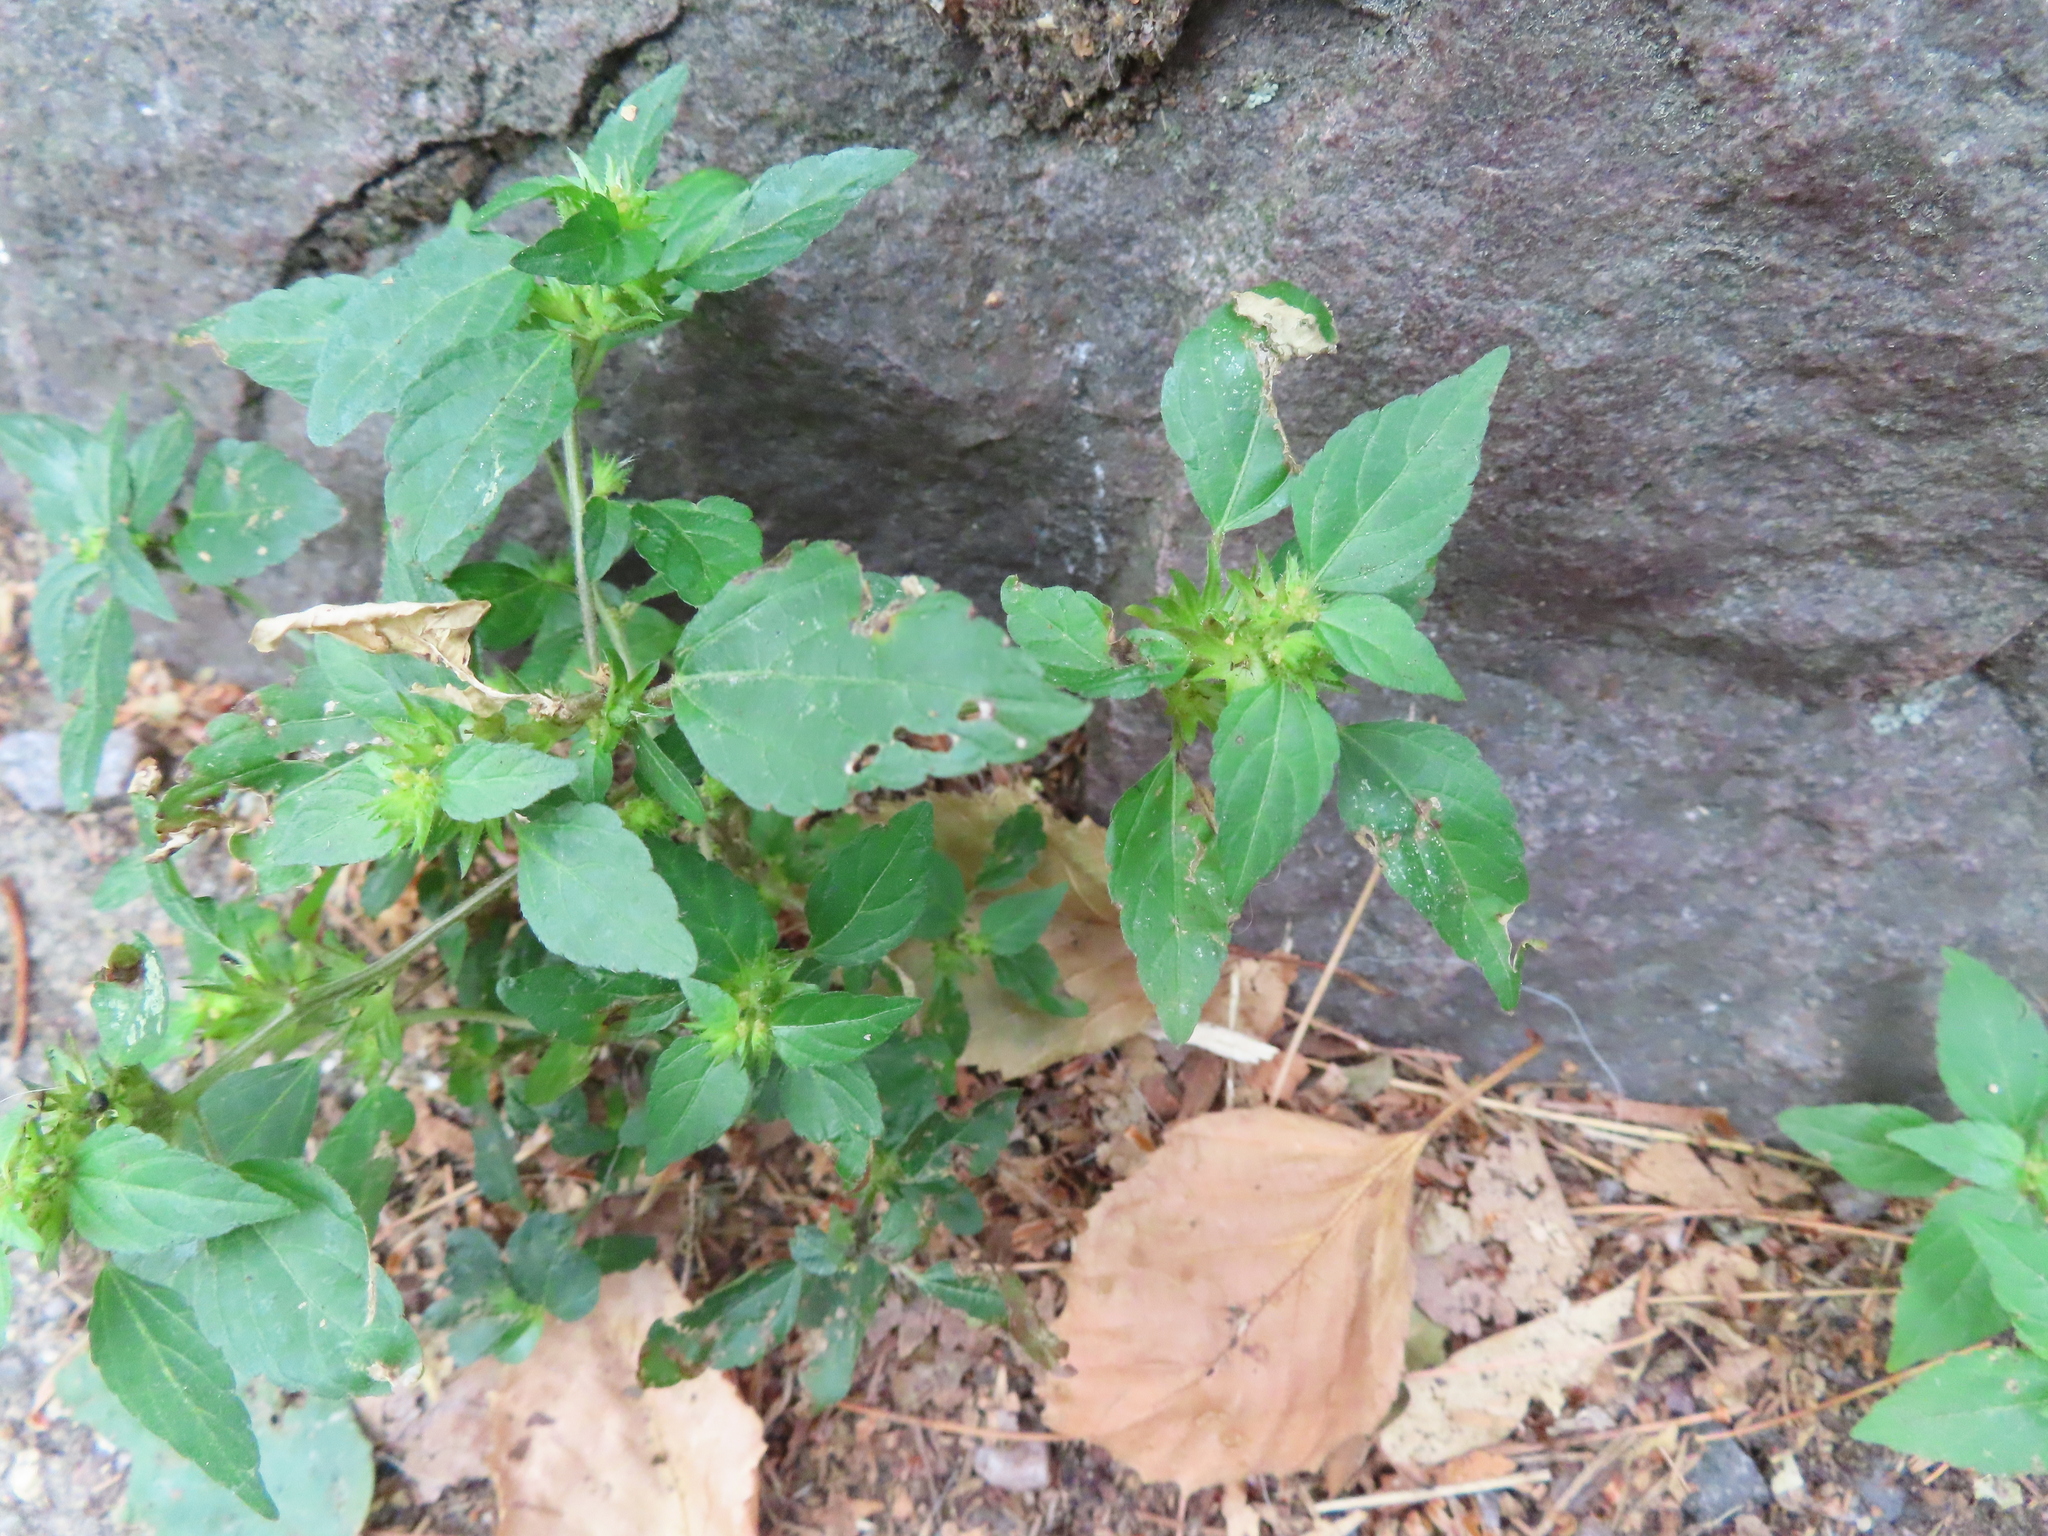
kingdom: Plantae
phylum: Tracheophyta
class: Magnoliopsida
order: Malpighiales
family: Euphorbiaceae
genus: Acalypha
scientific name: Acalypha rhomboidea
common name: Rhombic copperleaf
